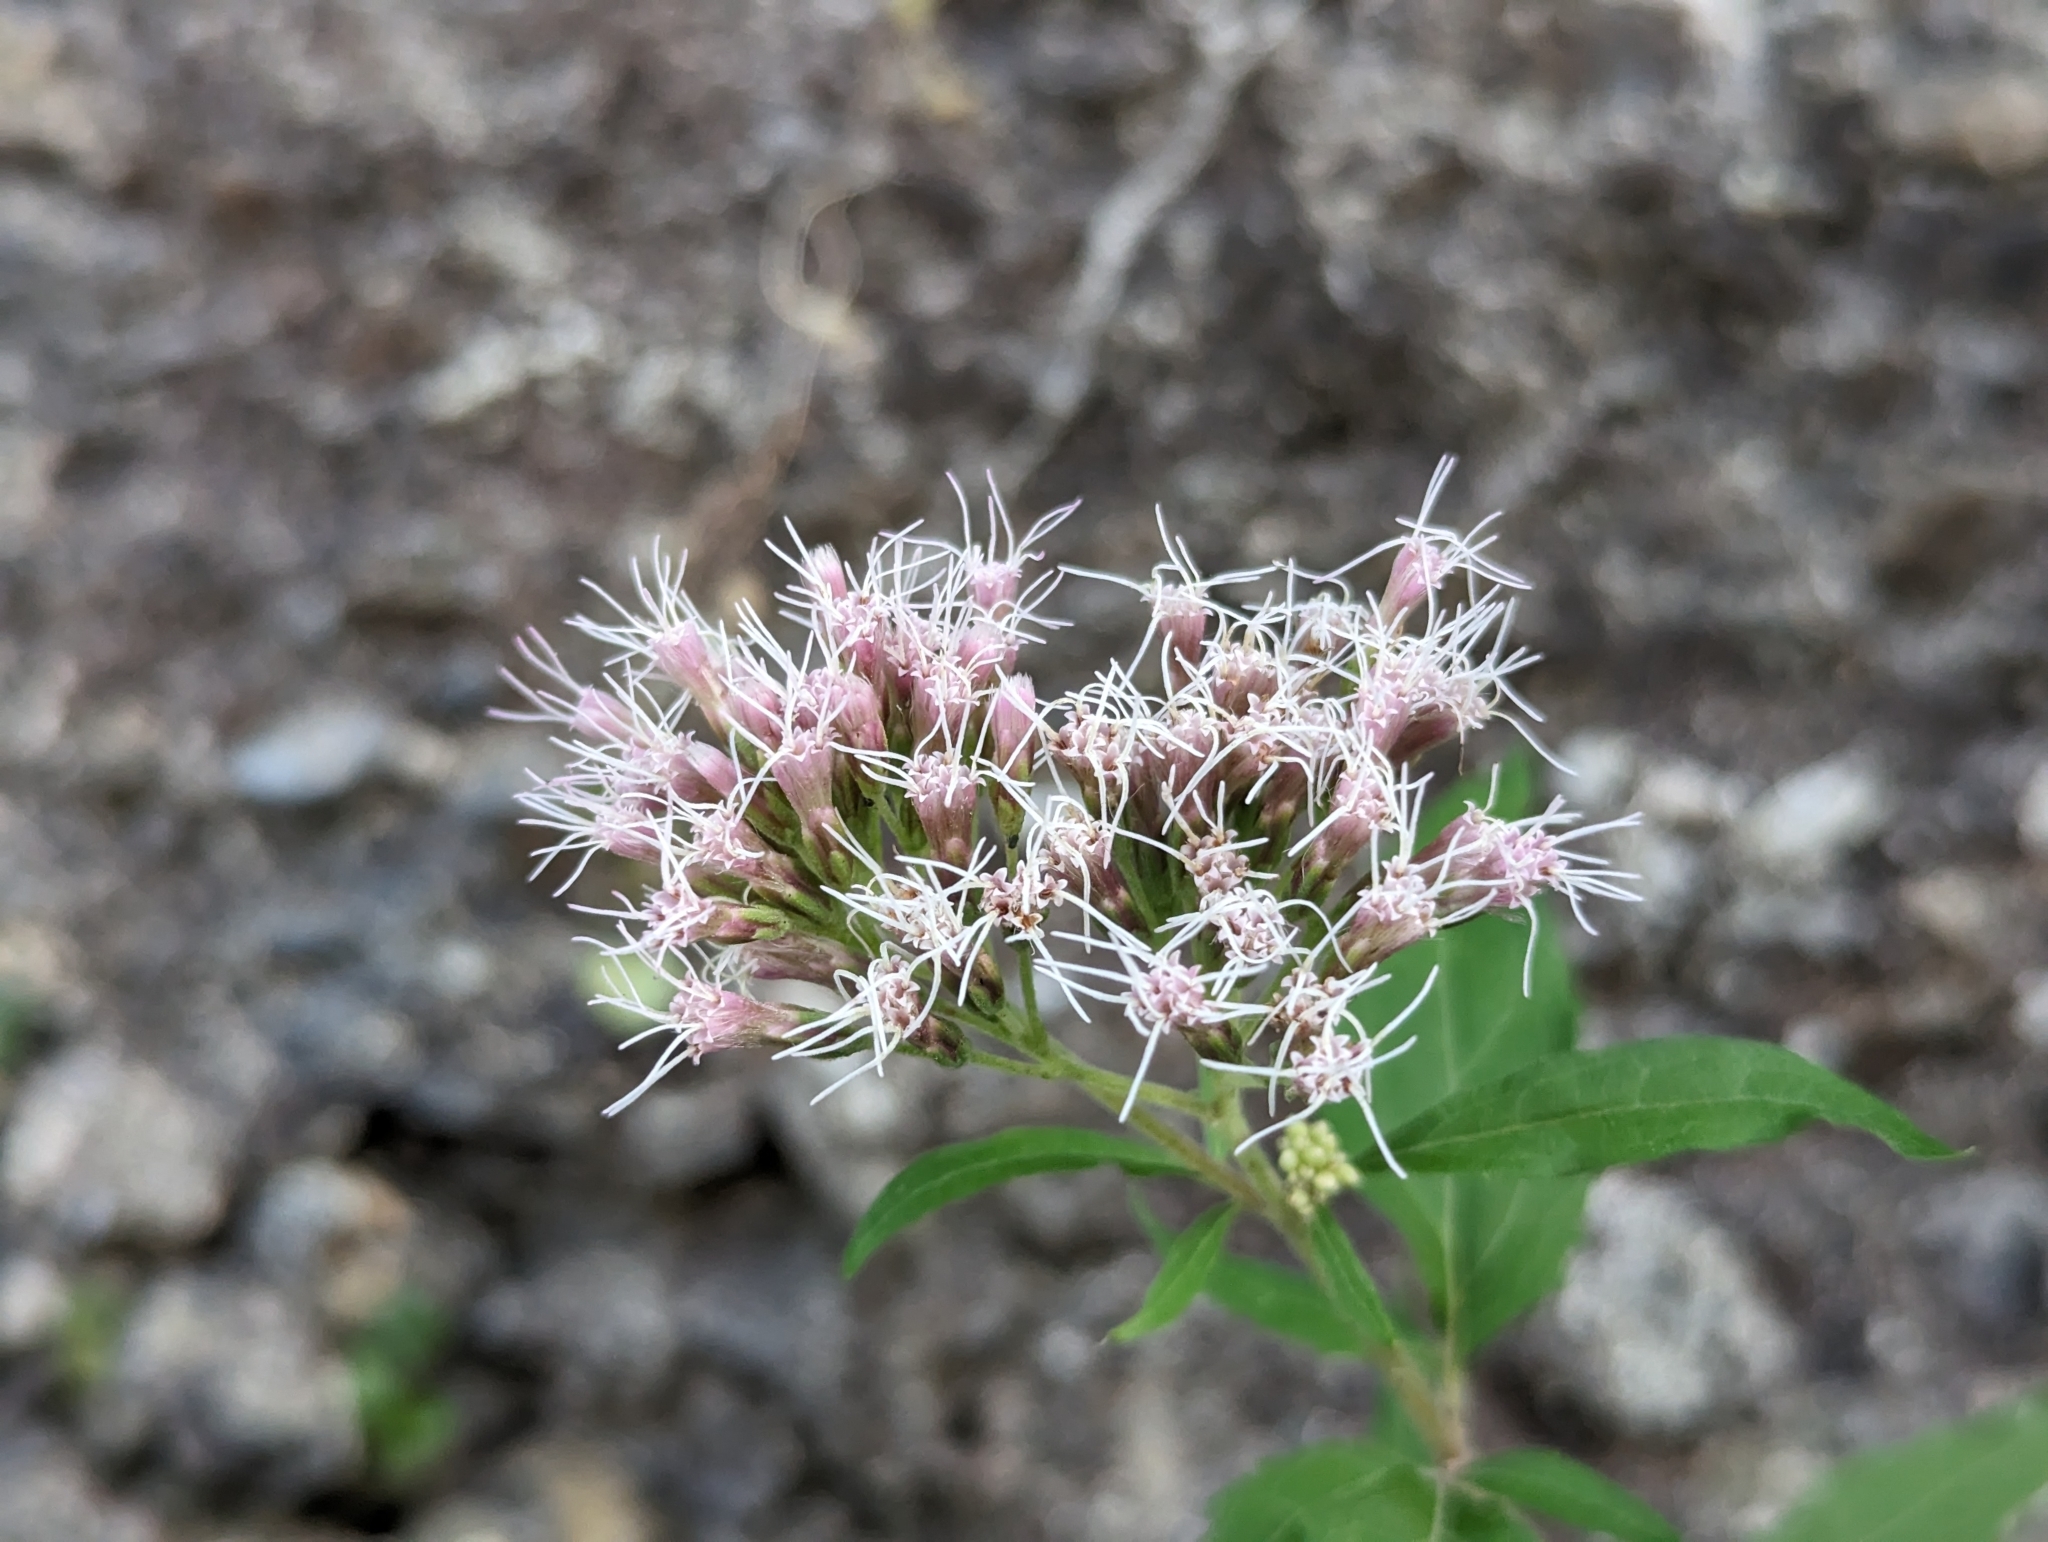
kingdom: Plantae
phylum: Tracheophyta
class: Magnoliopsida
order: Asterales
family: Asteraceae
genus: Eupatorium
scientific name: Eupatorium cannabinum
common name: Hemp-agrimony
